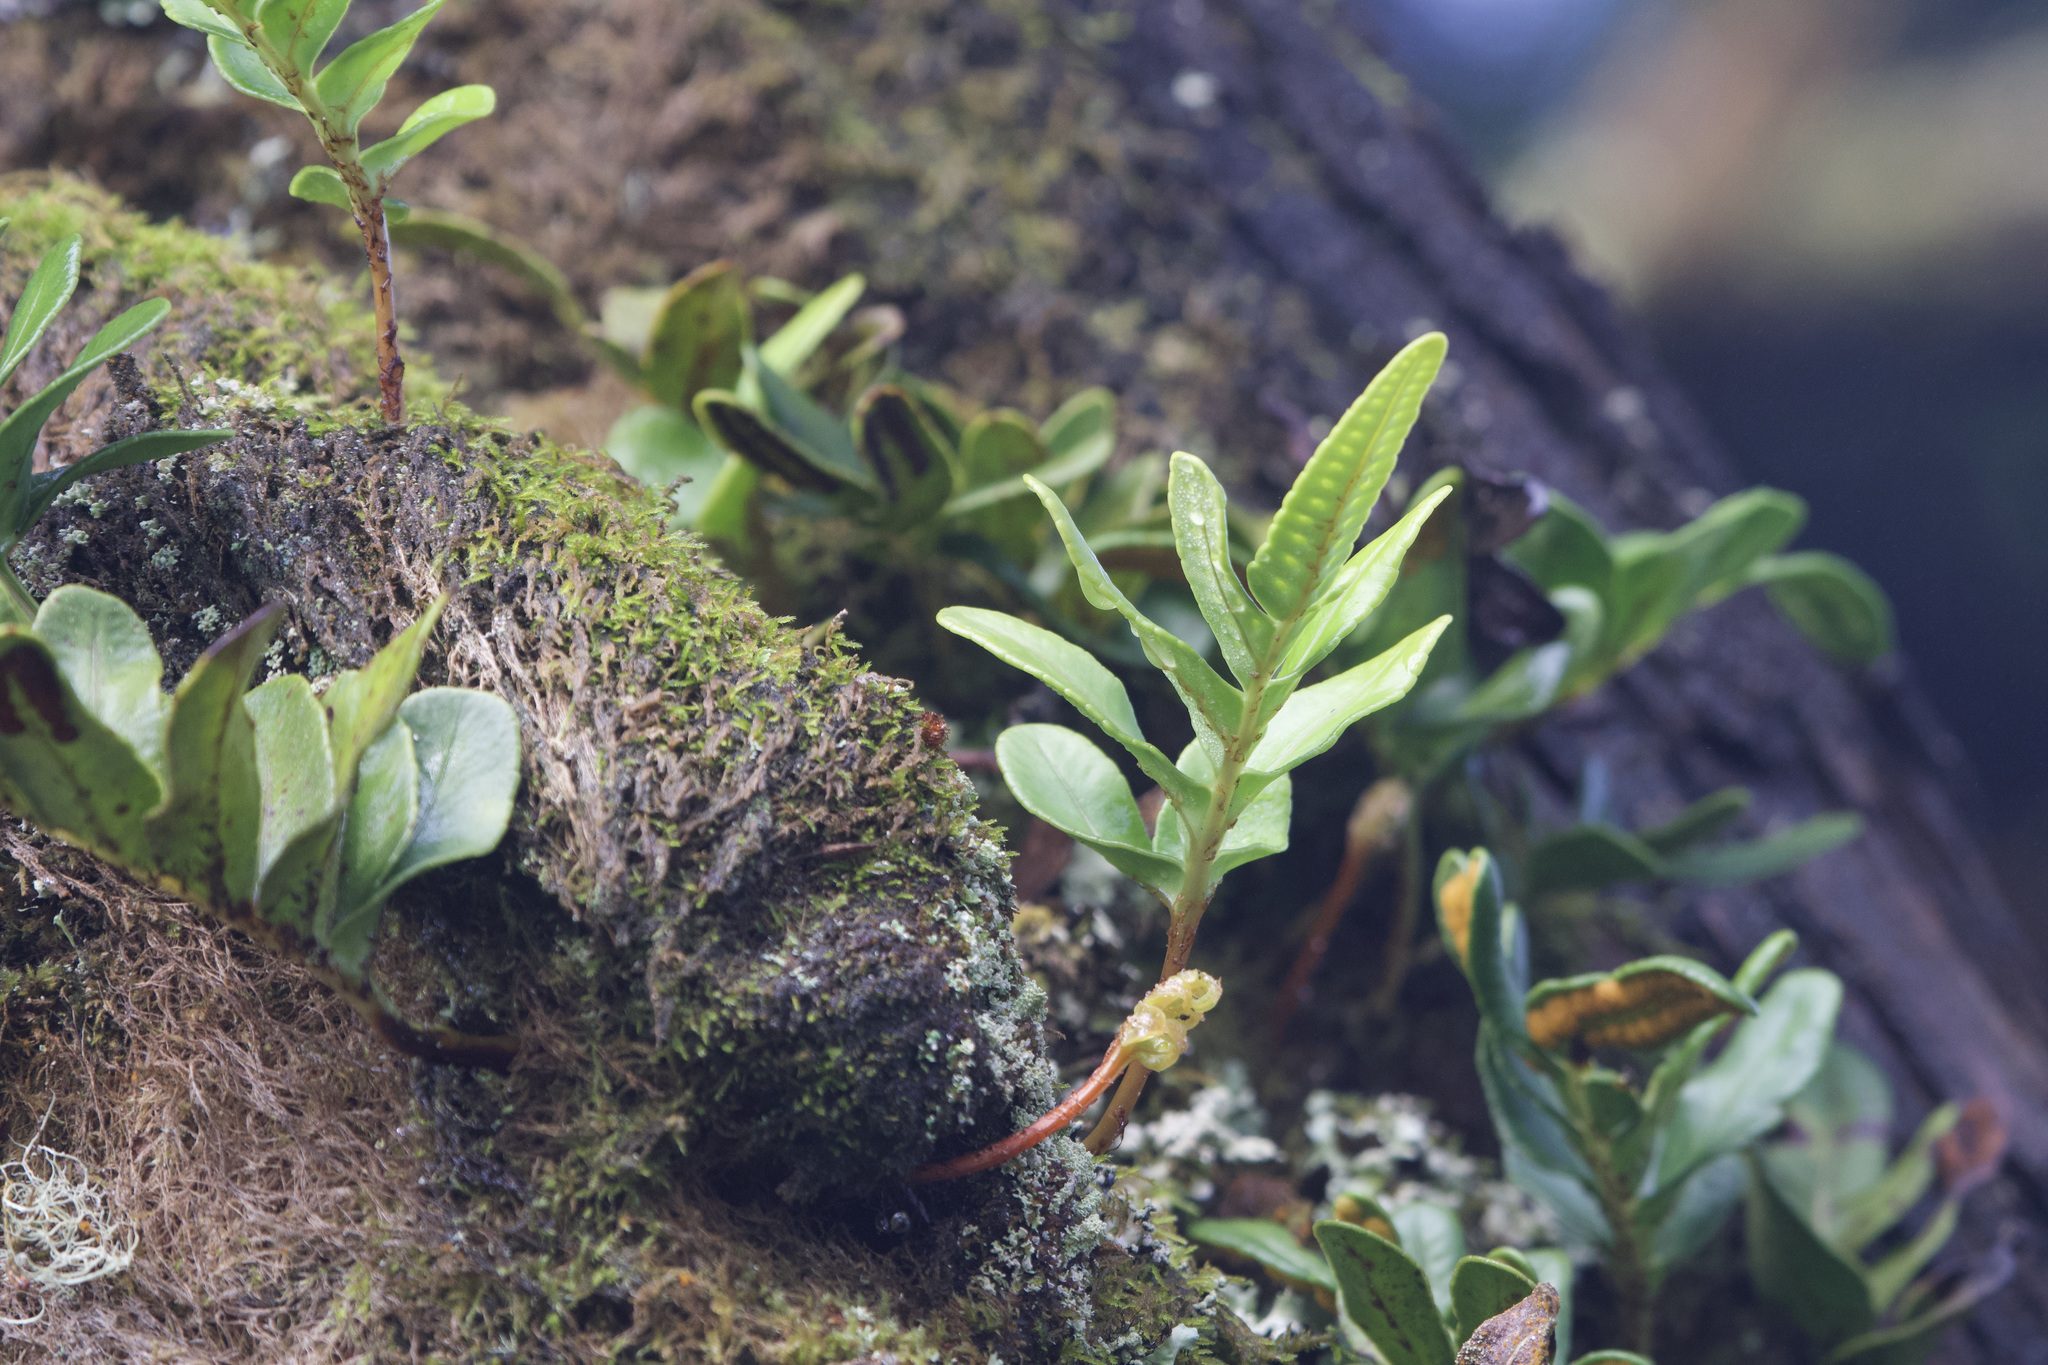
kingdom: Plantae
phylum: Tracheophyta
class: Polypodiopsida
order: Polypodiales
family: Polypodiaceae
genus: Polypodium
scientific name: Polypodium scouleri
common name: Scouler's polypody
